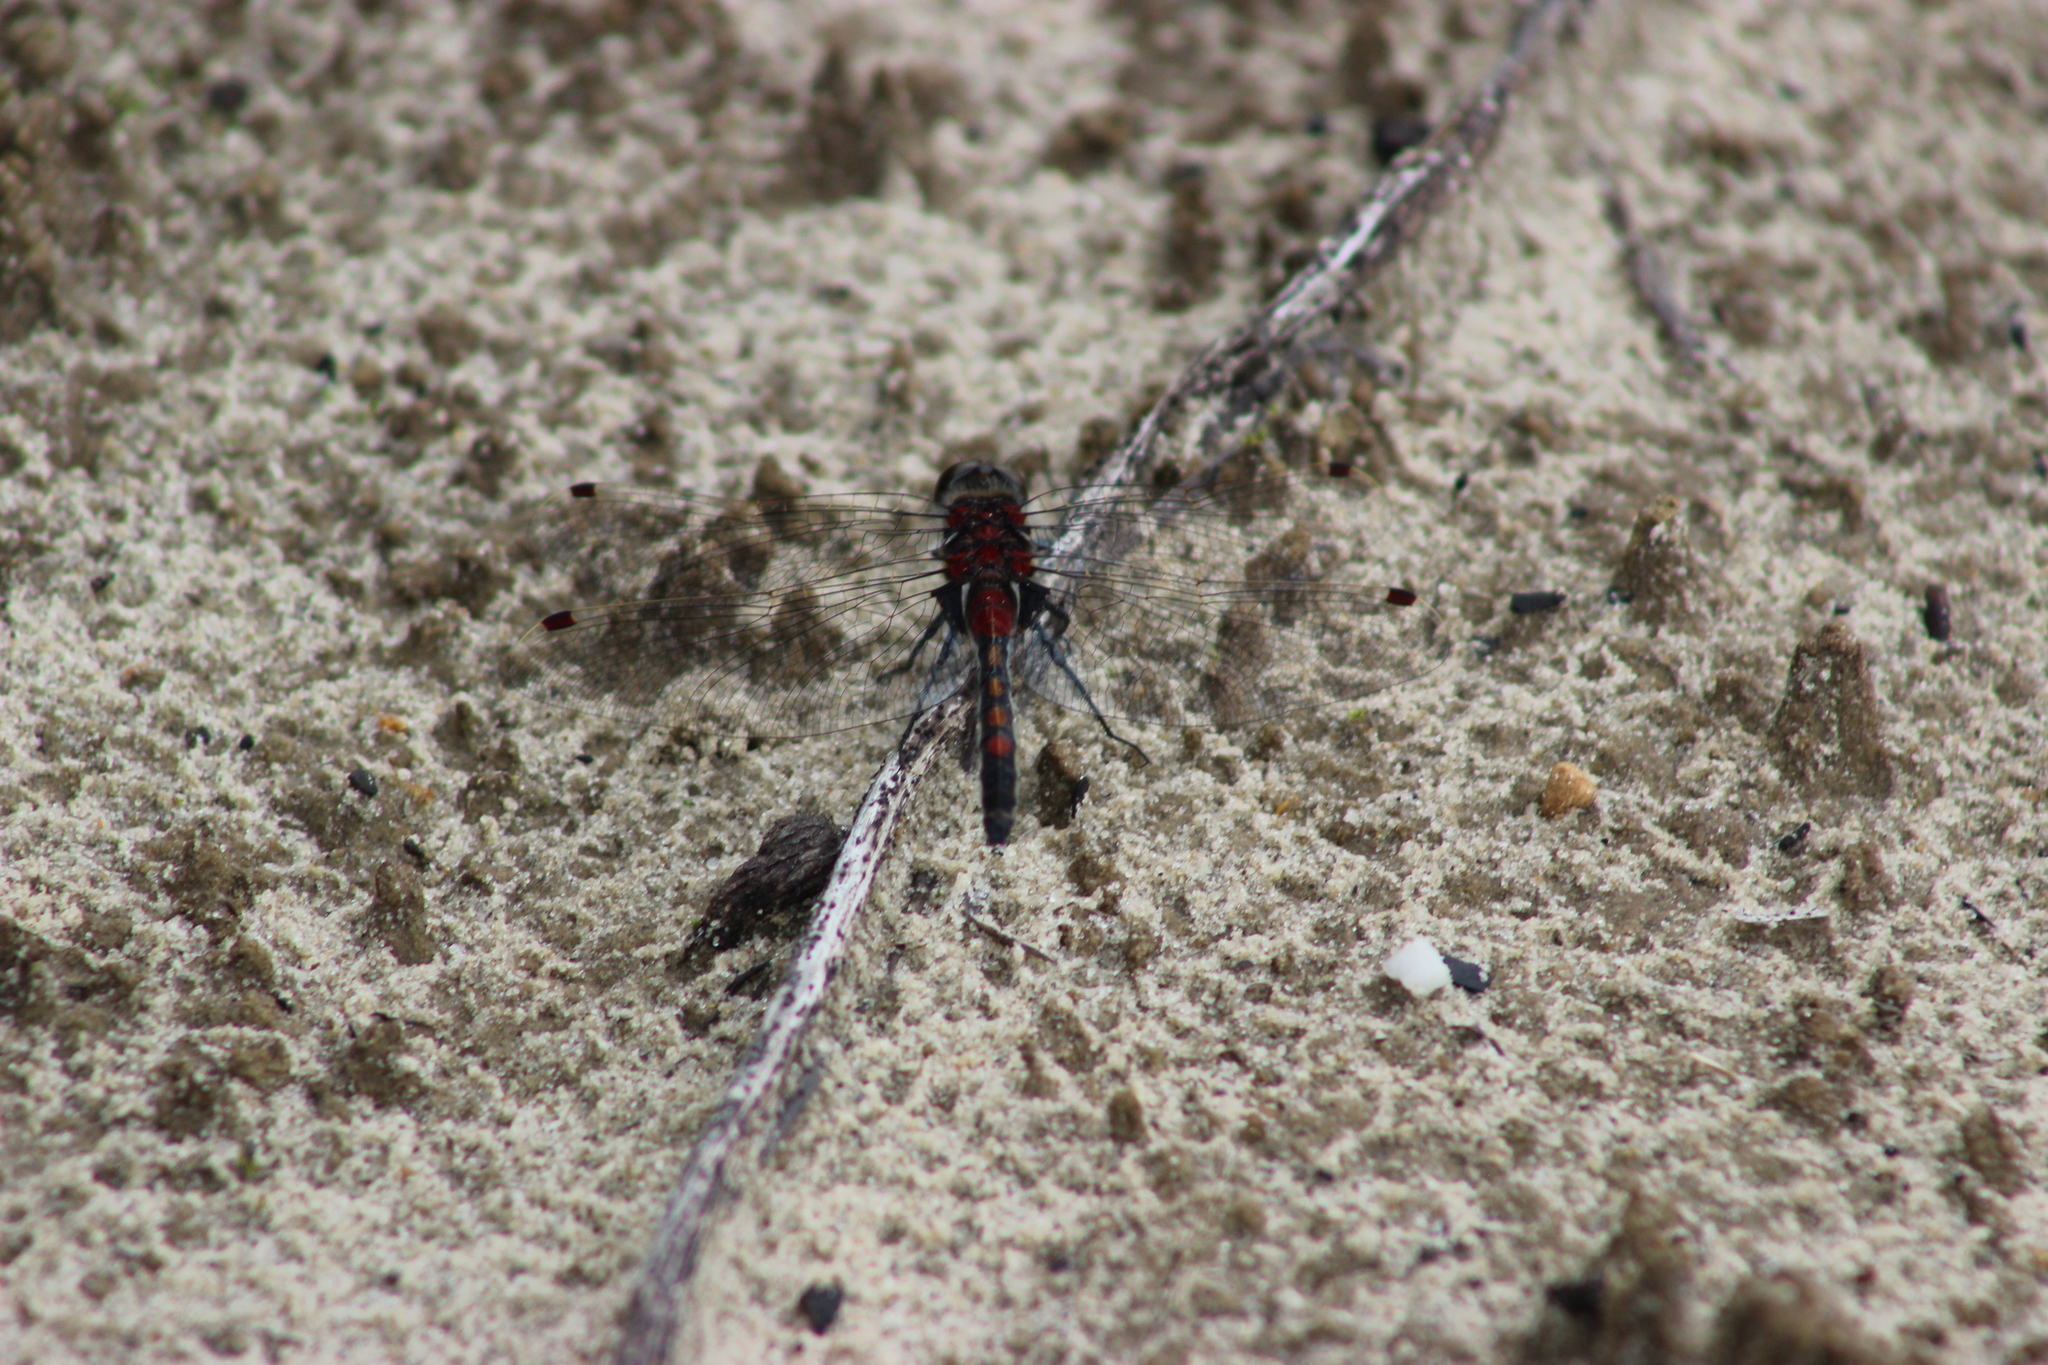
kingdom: Animalia
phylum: Arthropoda
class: Insecta
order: Odonata
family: Libellulidae
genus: Leucorrhinia
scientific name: Leucorrhinia rubicunda
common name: Ruby whiteface
